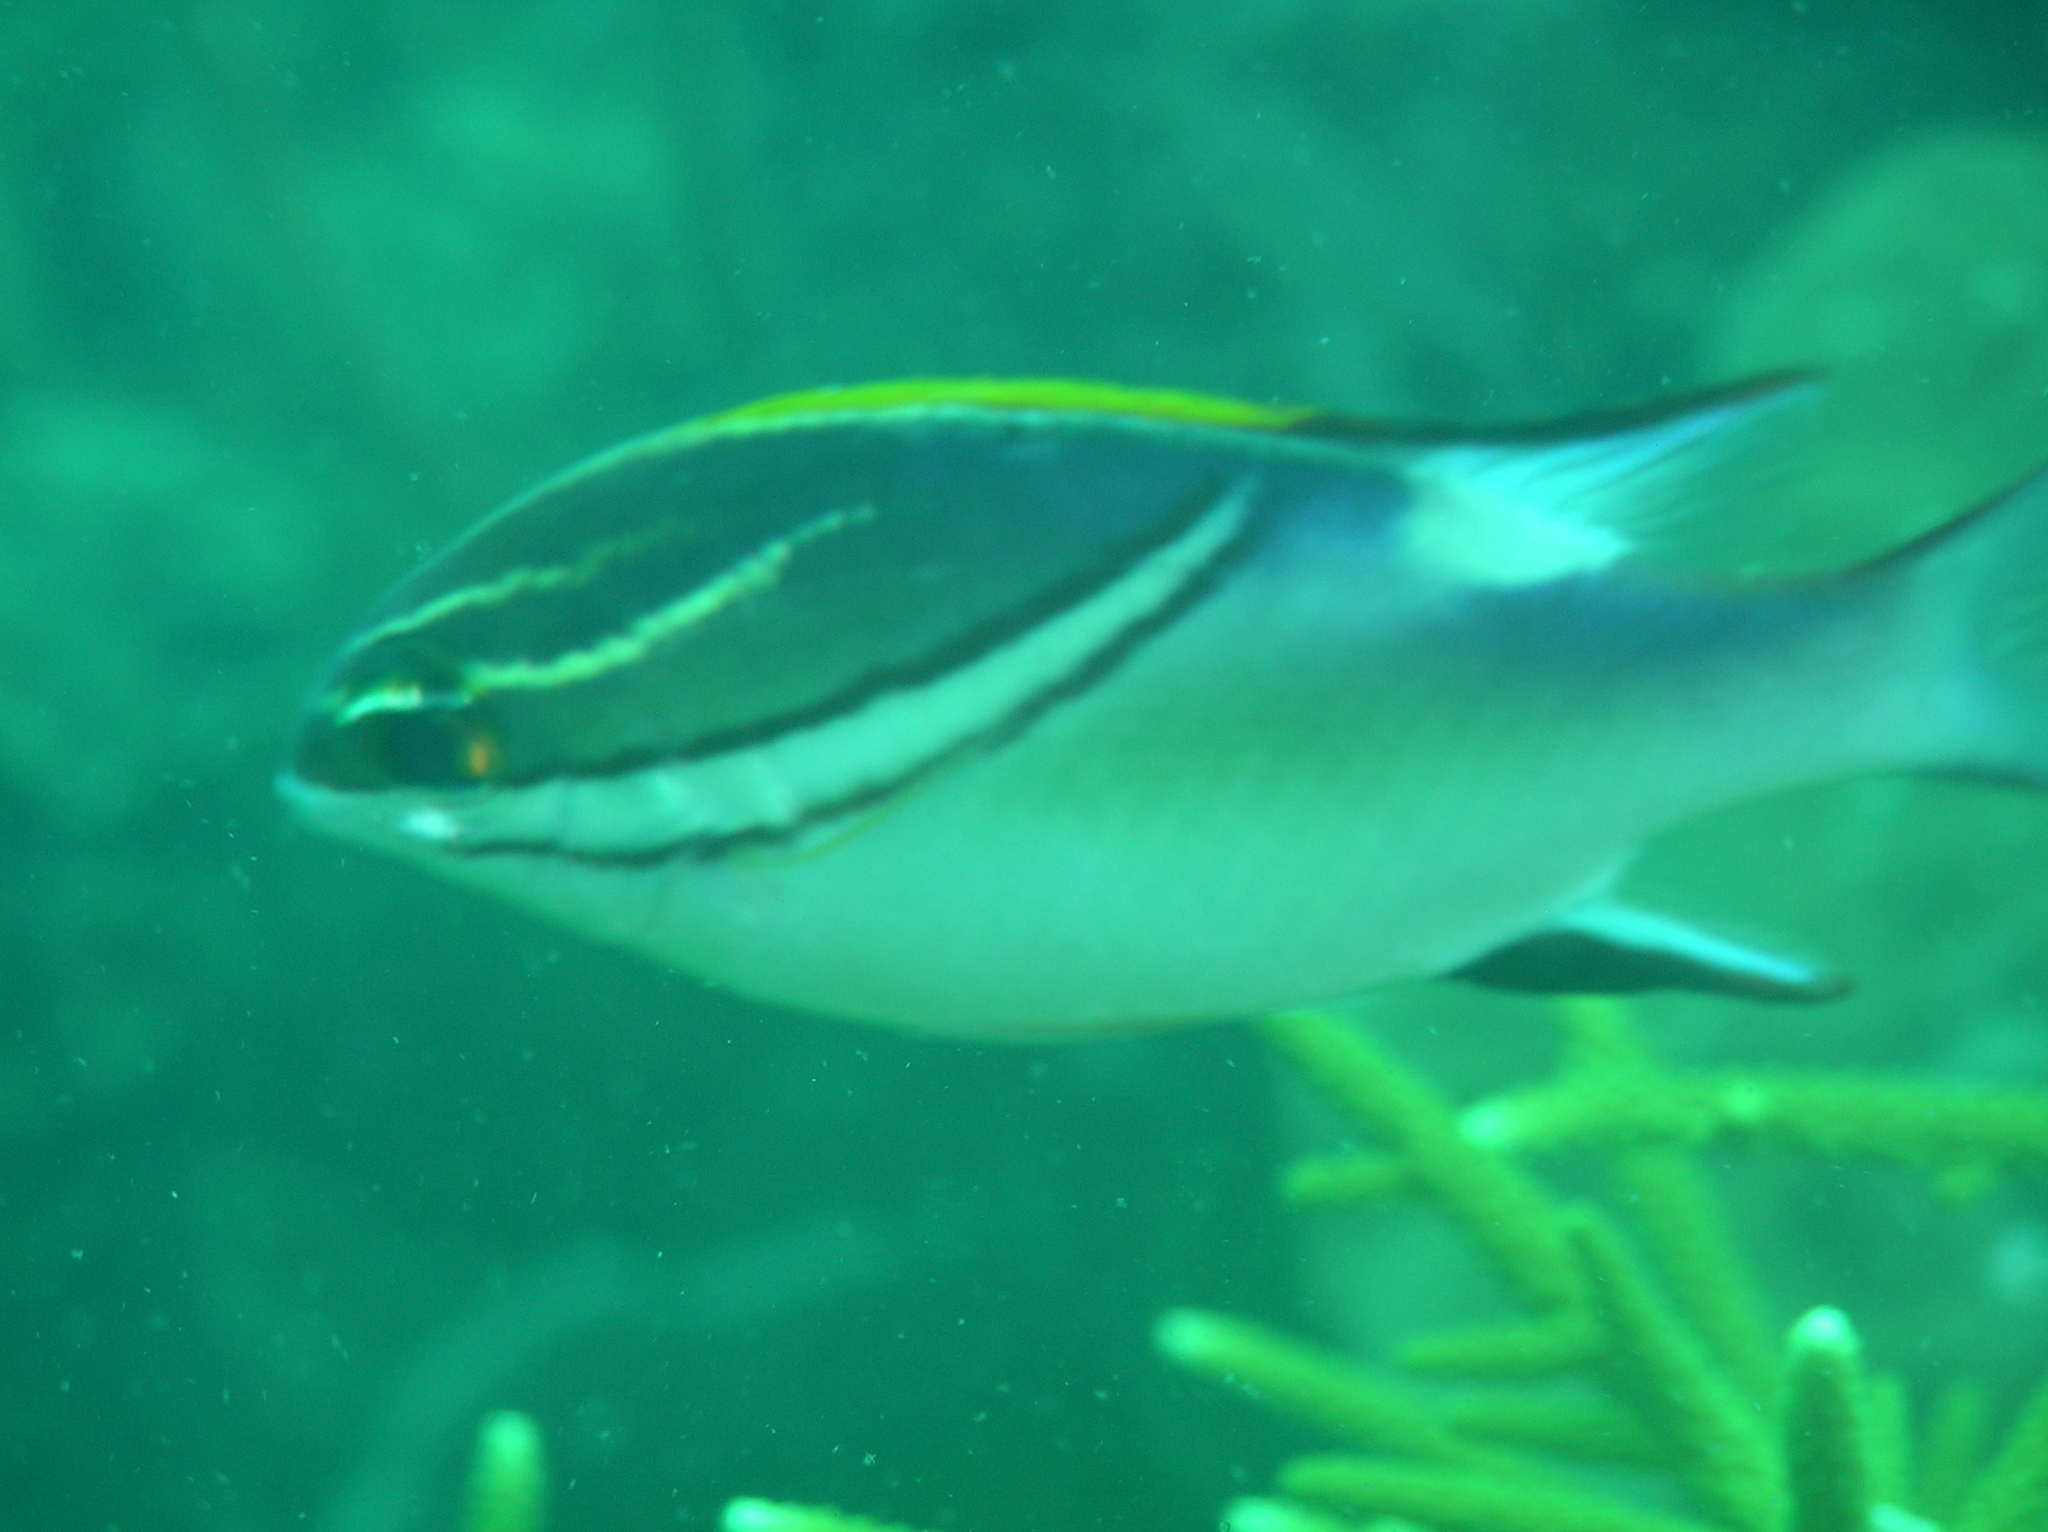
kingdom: Animalia
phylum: Chordata
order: Perciformes
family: Nemipteridae
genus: Scolopsis
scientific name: Scolopsis bilineata
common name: Two-lined monocle bream
